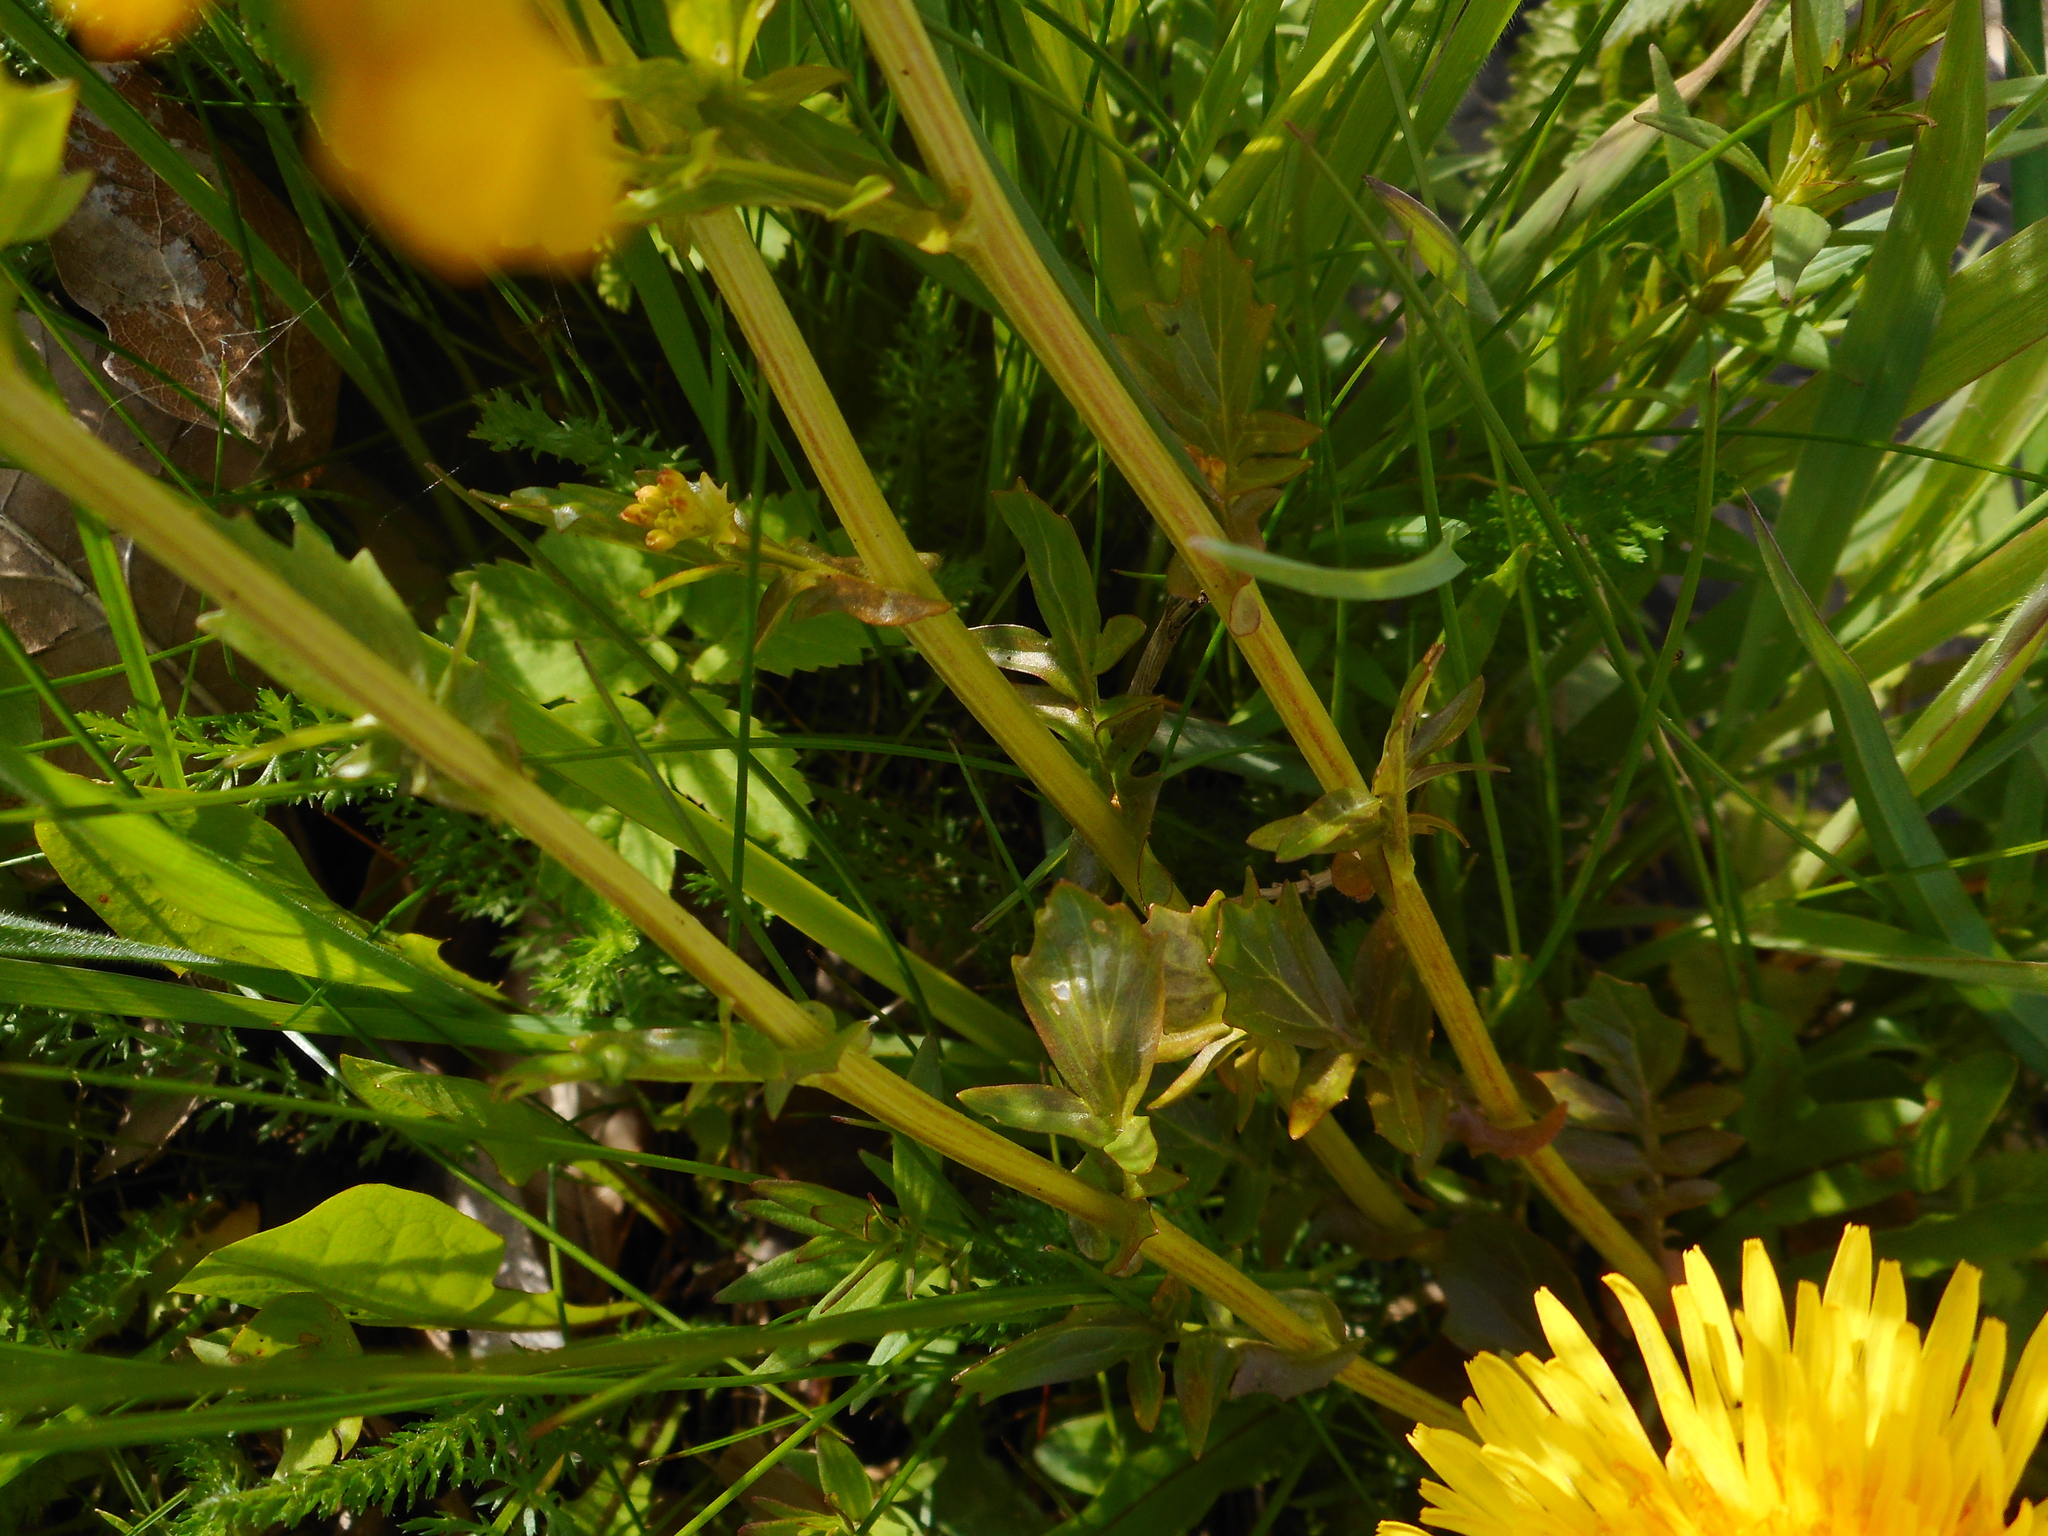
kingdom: Plantae
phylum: Tracheophyta
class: Magnoliopsida
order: Brassicales
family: Brassicaceae
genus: Barbarea
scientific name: Barbarea vulgaris
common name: Cressy-greens
